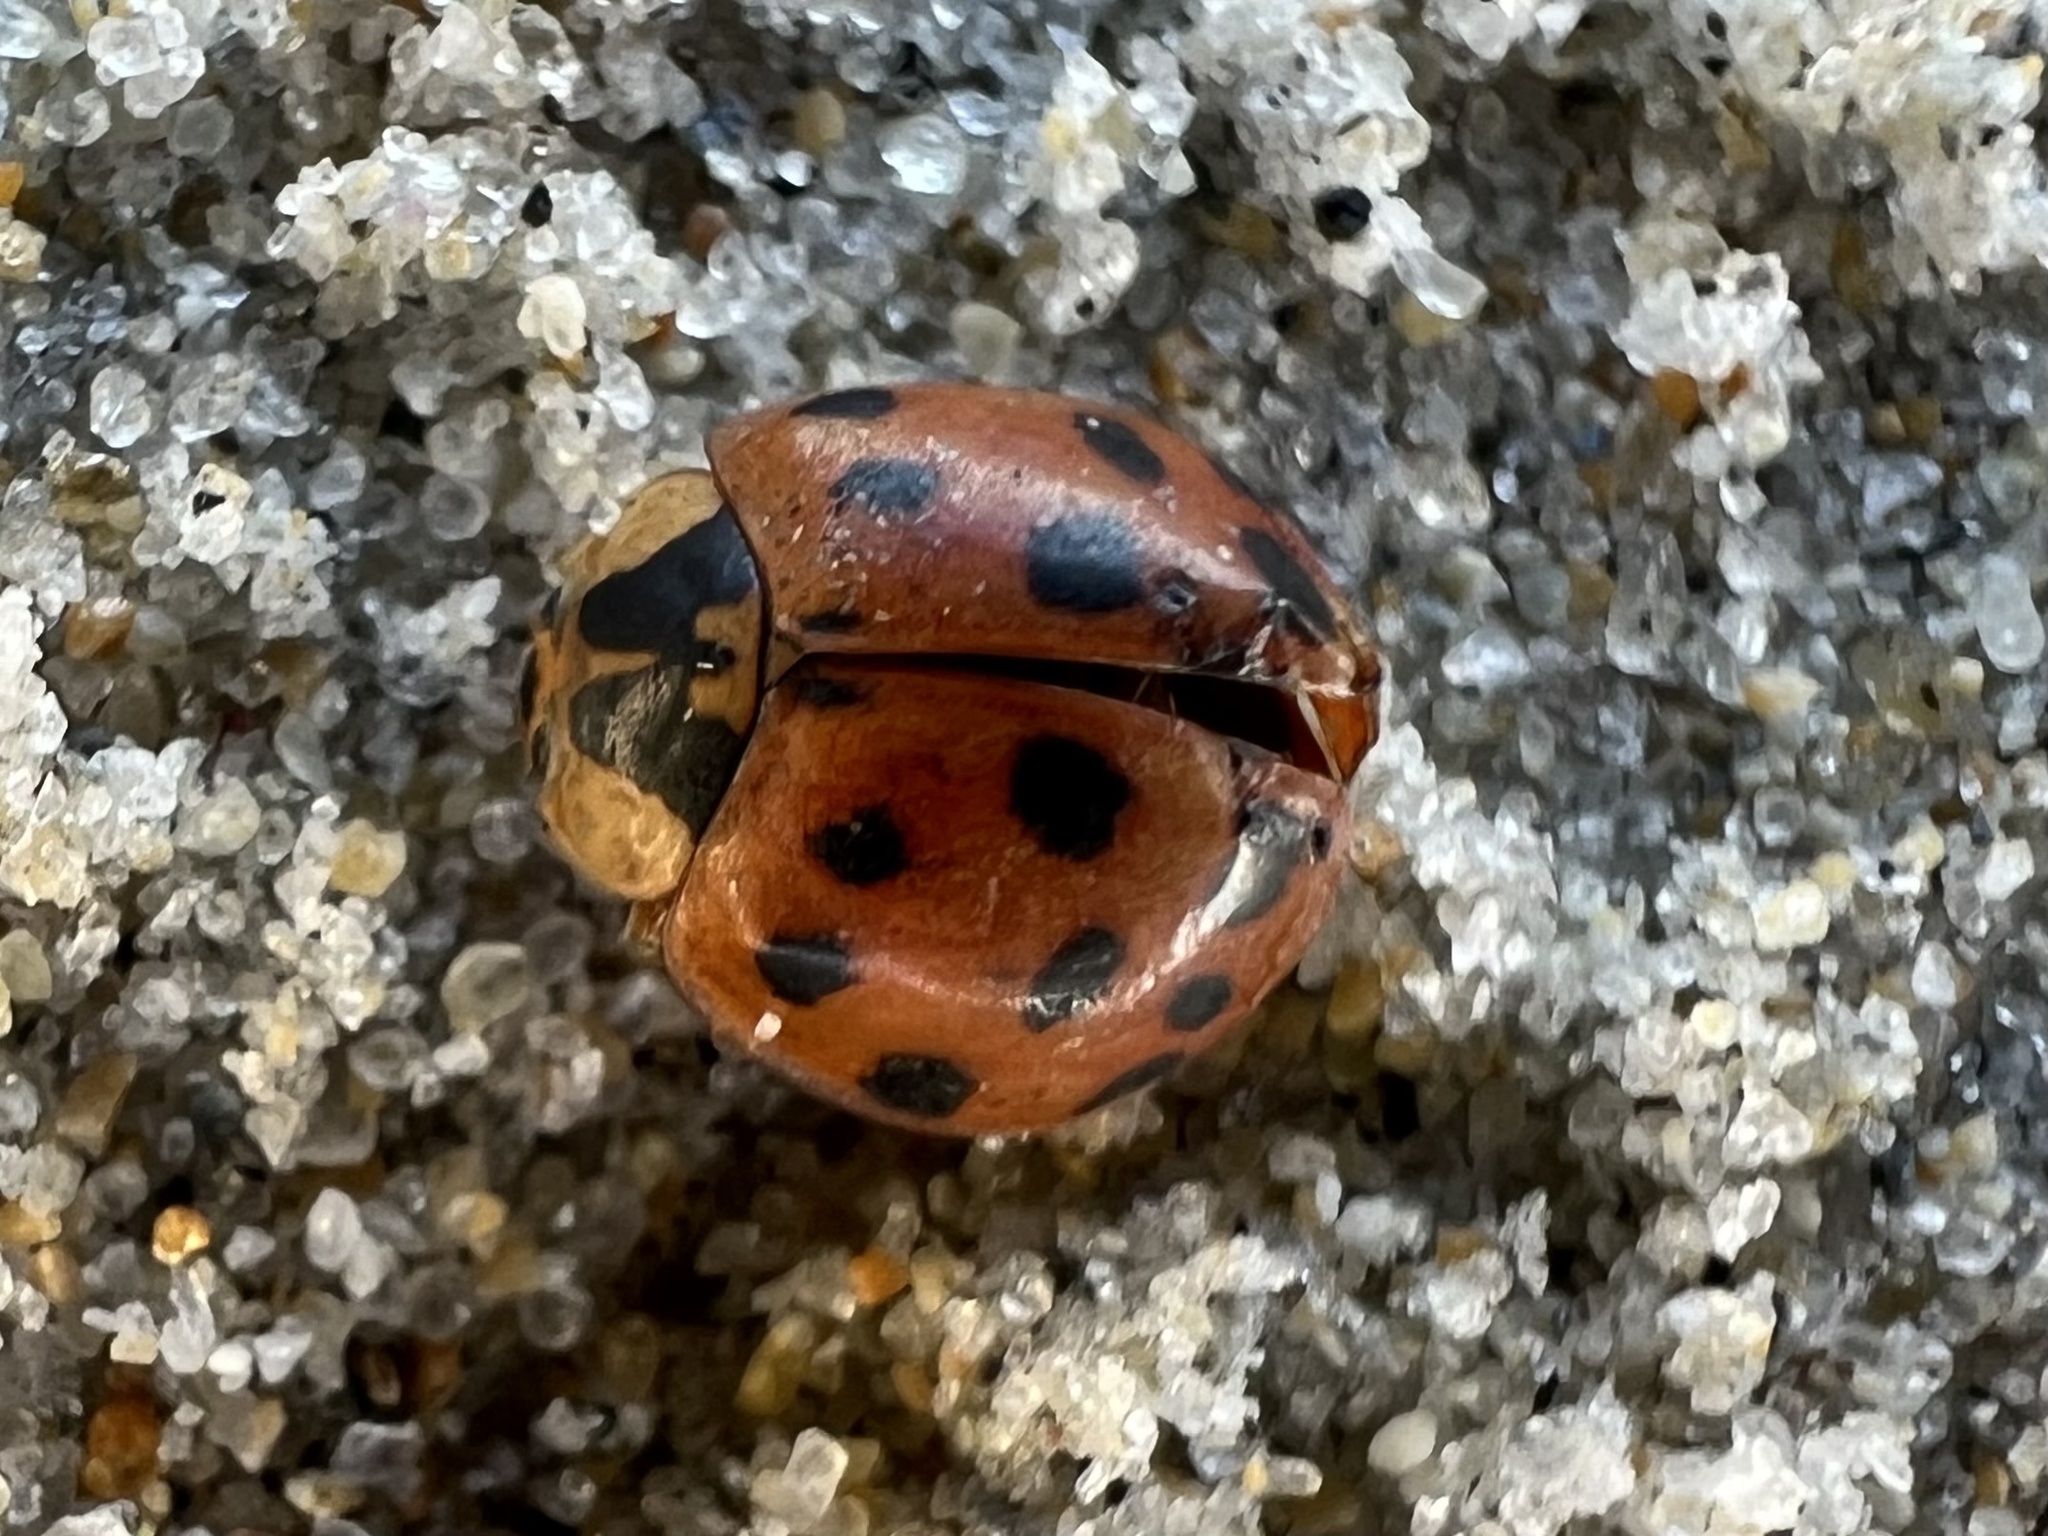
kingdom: Animalia
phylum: Arthropoda
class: Insecta
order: Coleoptera
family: Coccinellidae
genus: Harmonia
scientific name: Harmonia axyridis
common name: Harlequin ladybird
